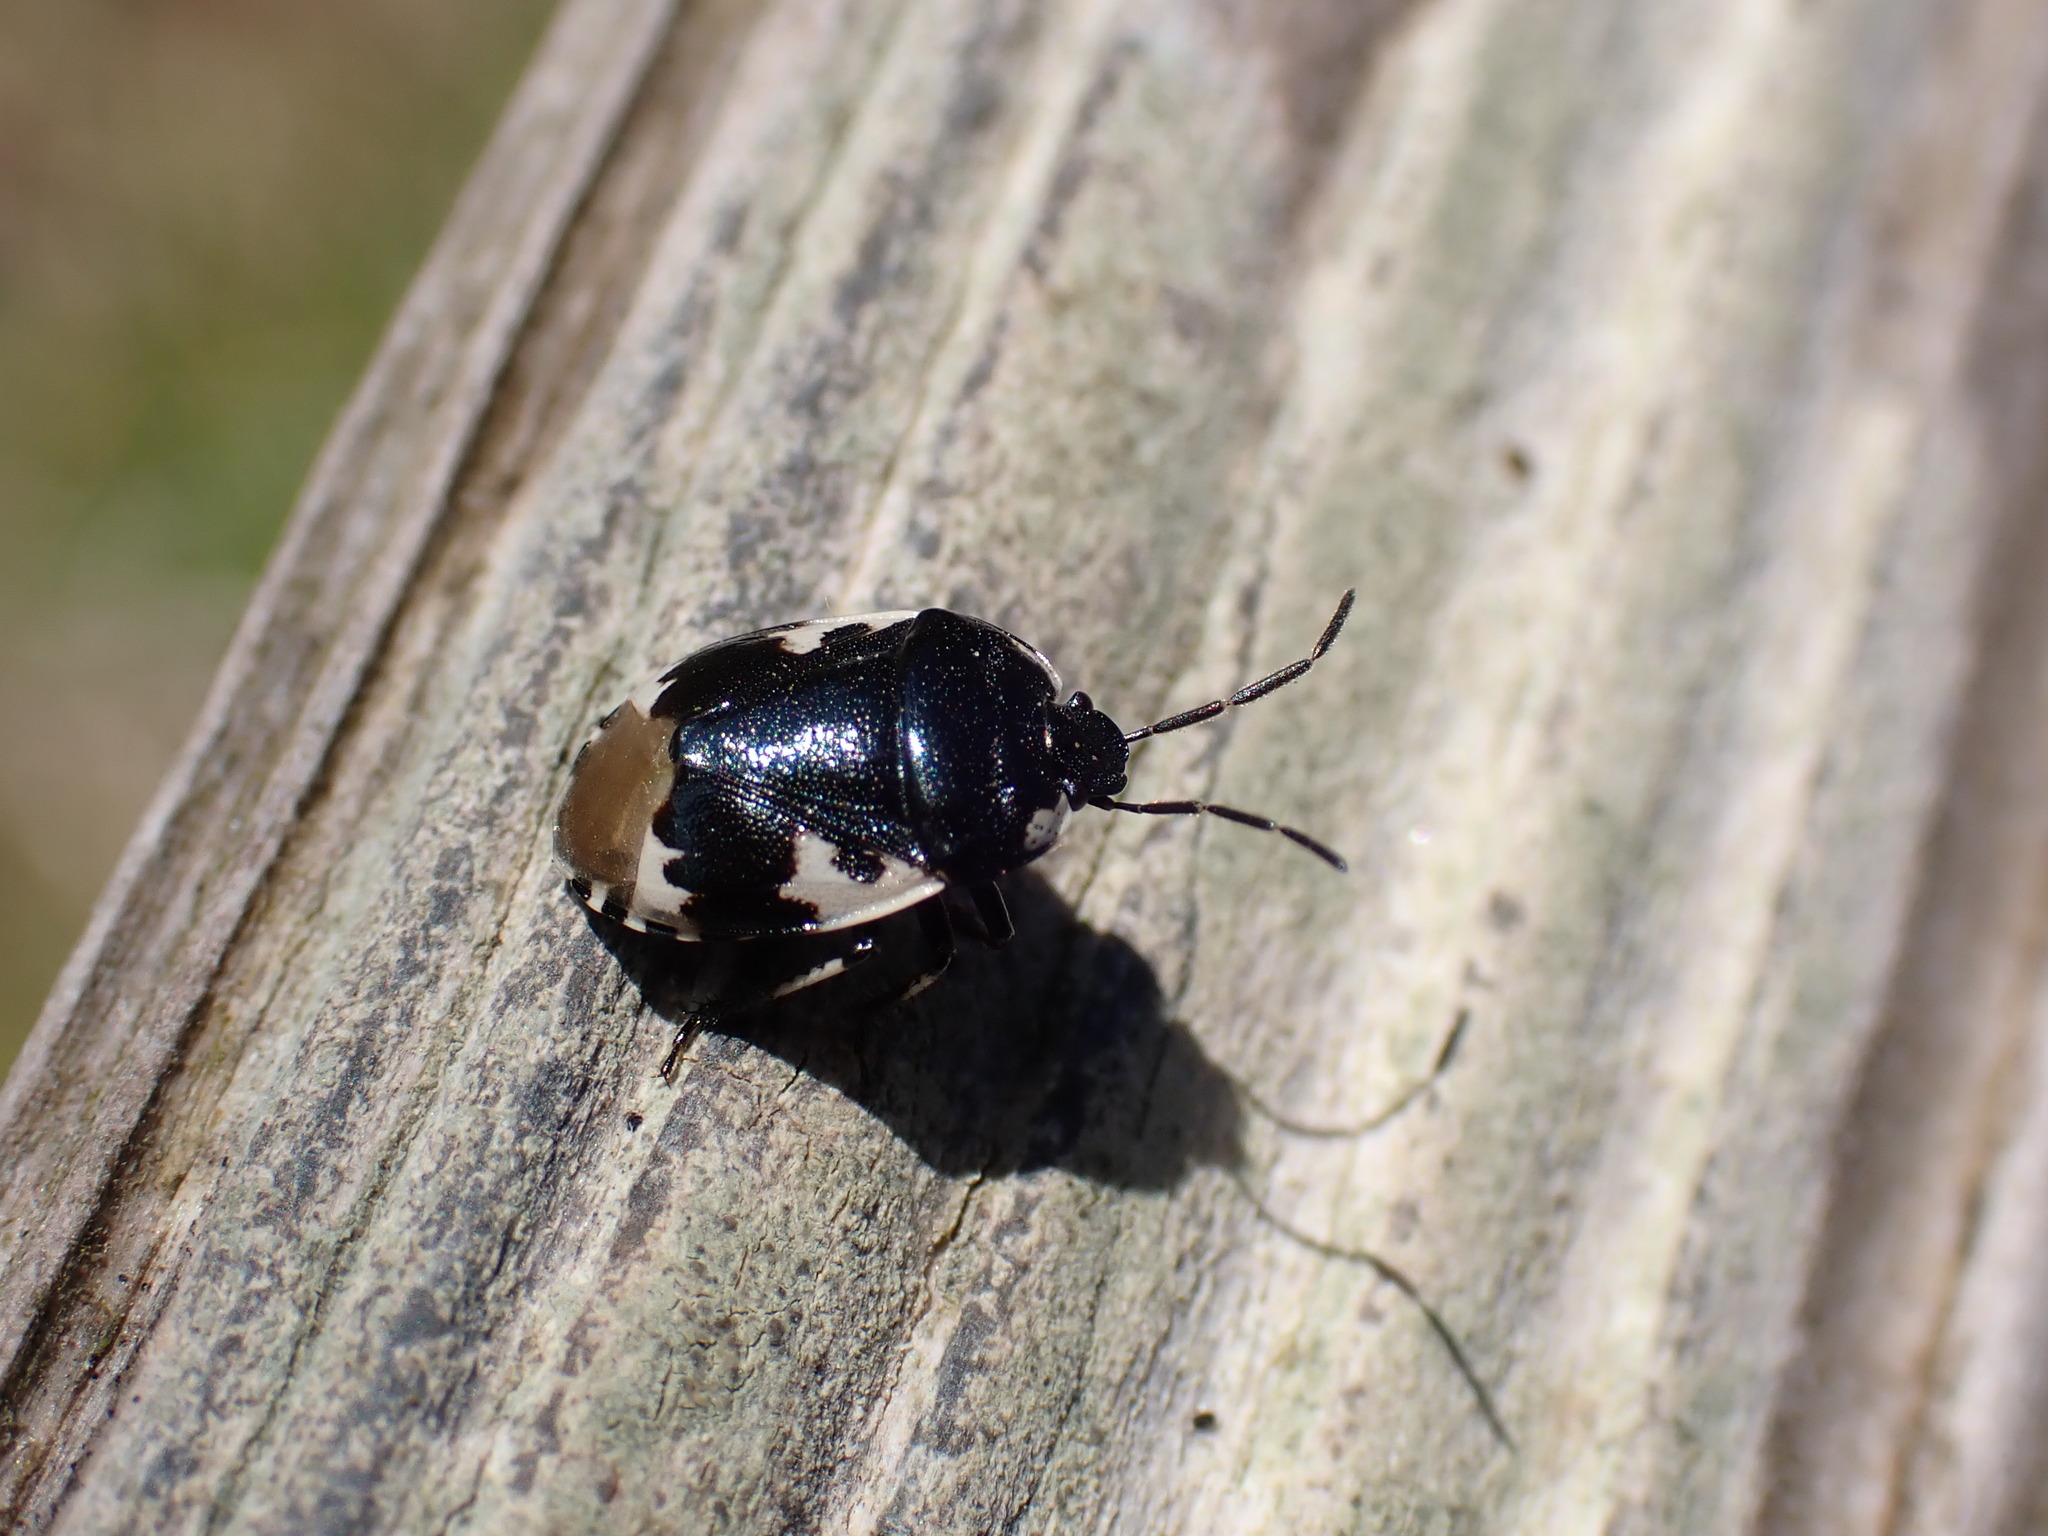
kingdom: Animalia
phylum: Arthropoda
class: Insecta
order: Hemiptera
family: Cydnidae
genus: Tritomegas
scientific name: Tritomegas bicolor
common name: Pied shieldbug
